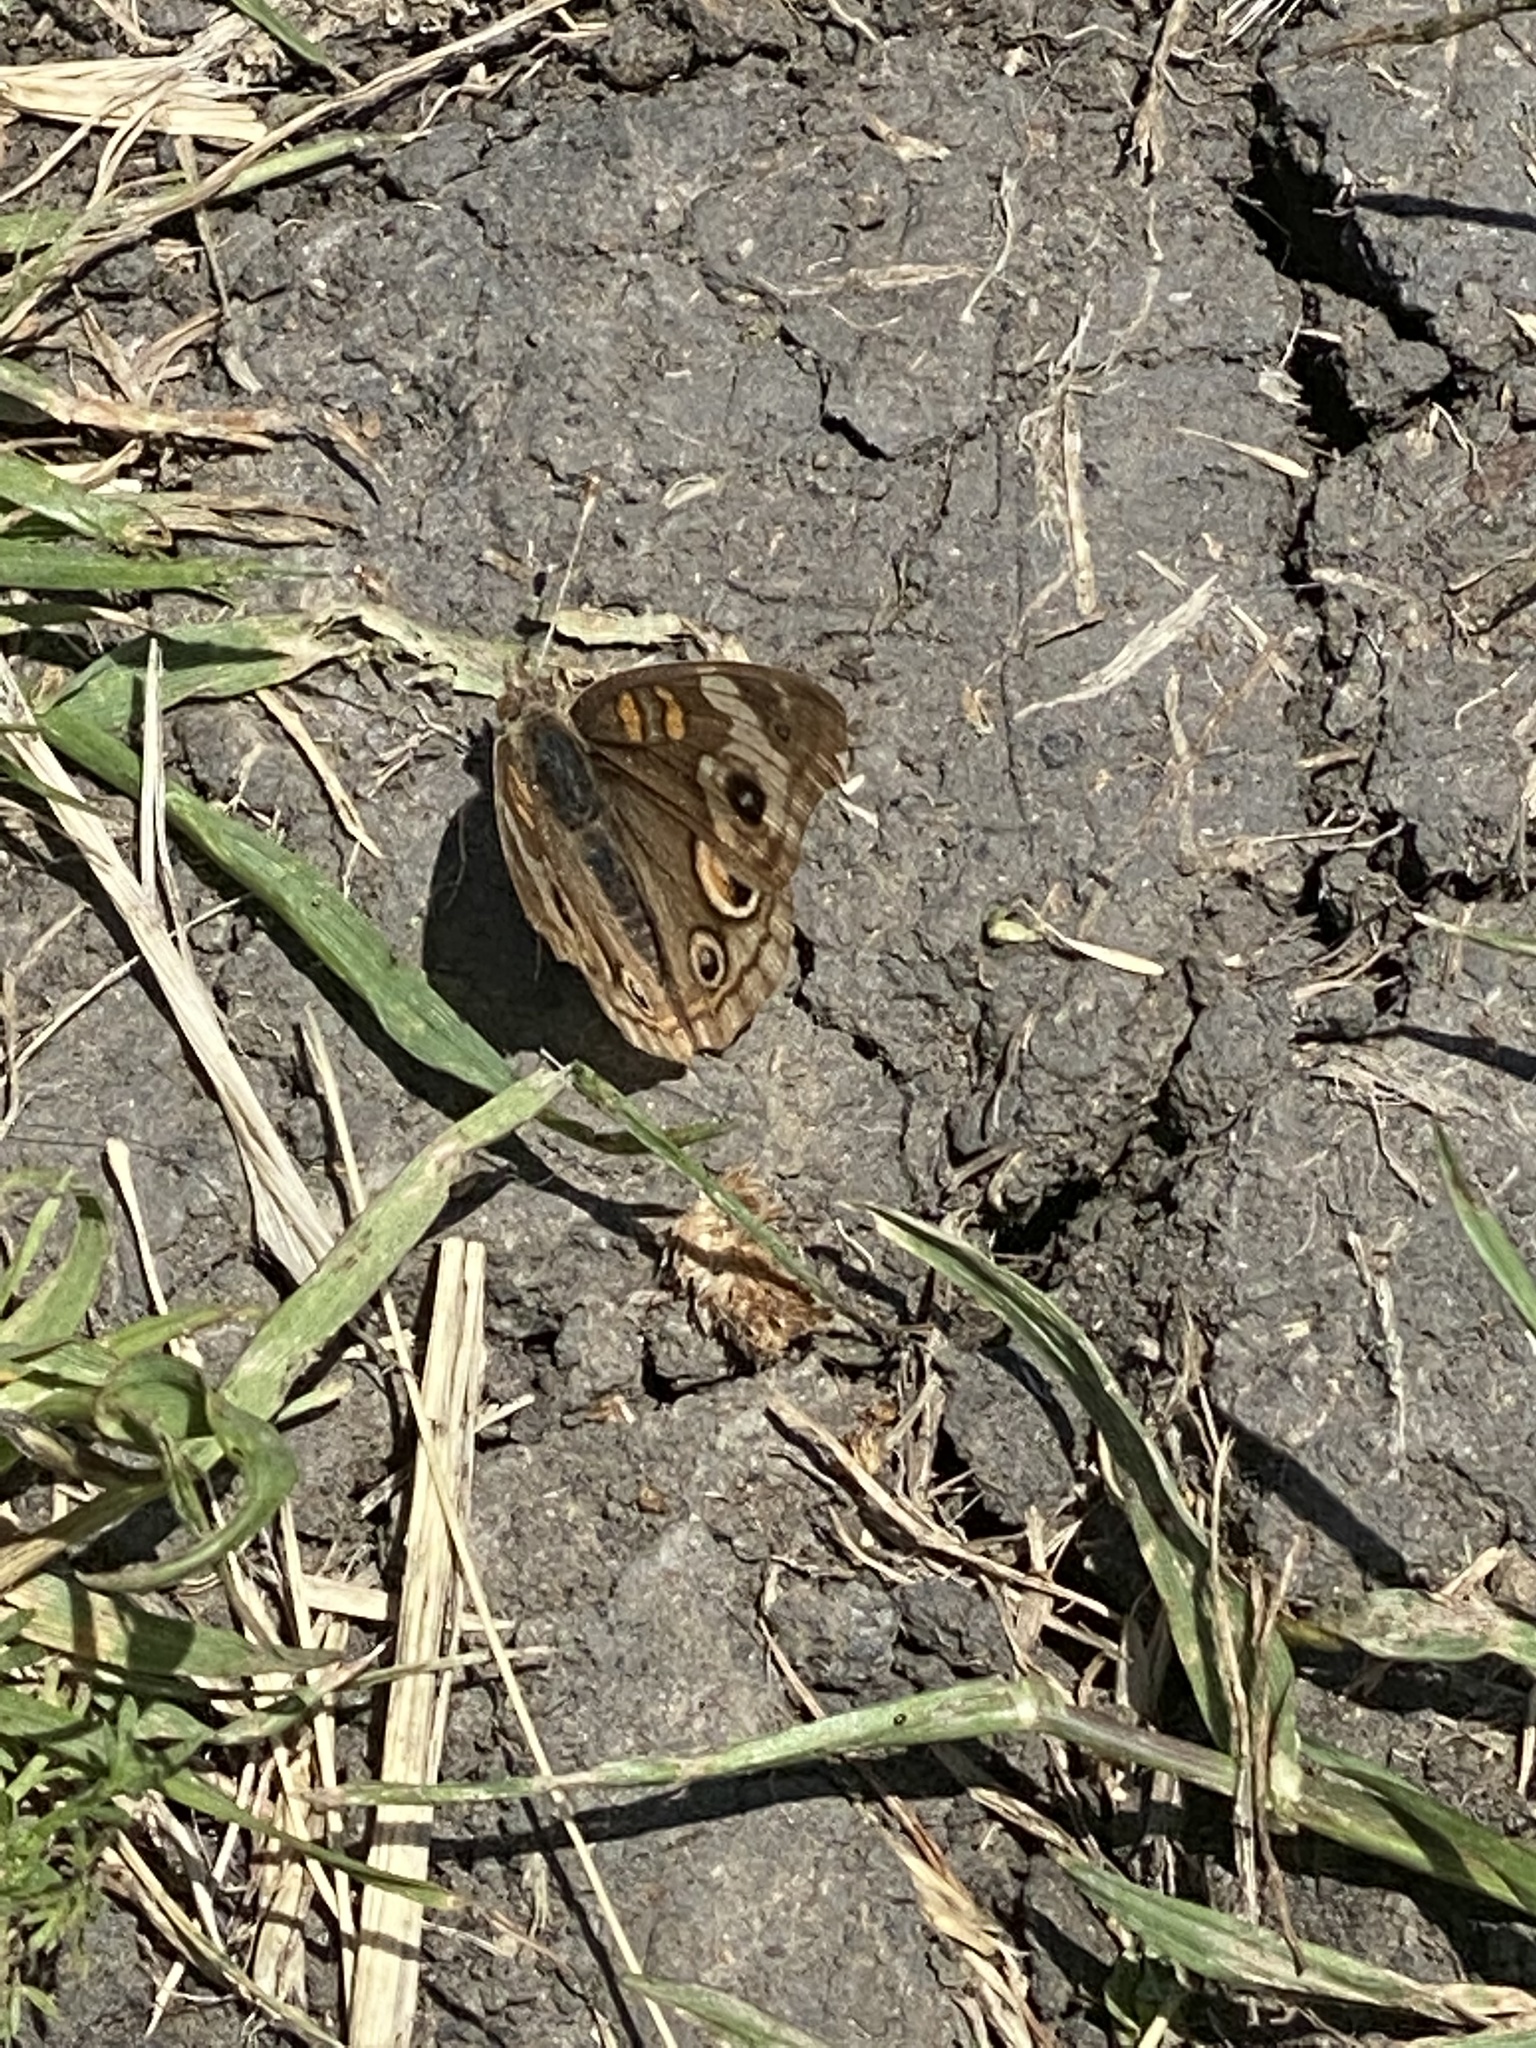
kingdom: Animalia
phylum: Arthropoda
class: Insecta
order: Lepidoptera
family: Nymphalidae
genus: Junonia
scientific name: Junonia grisea
